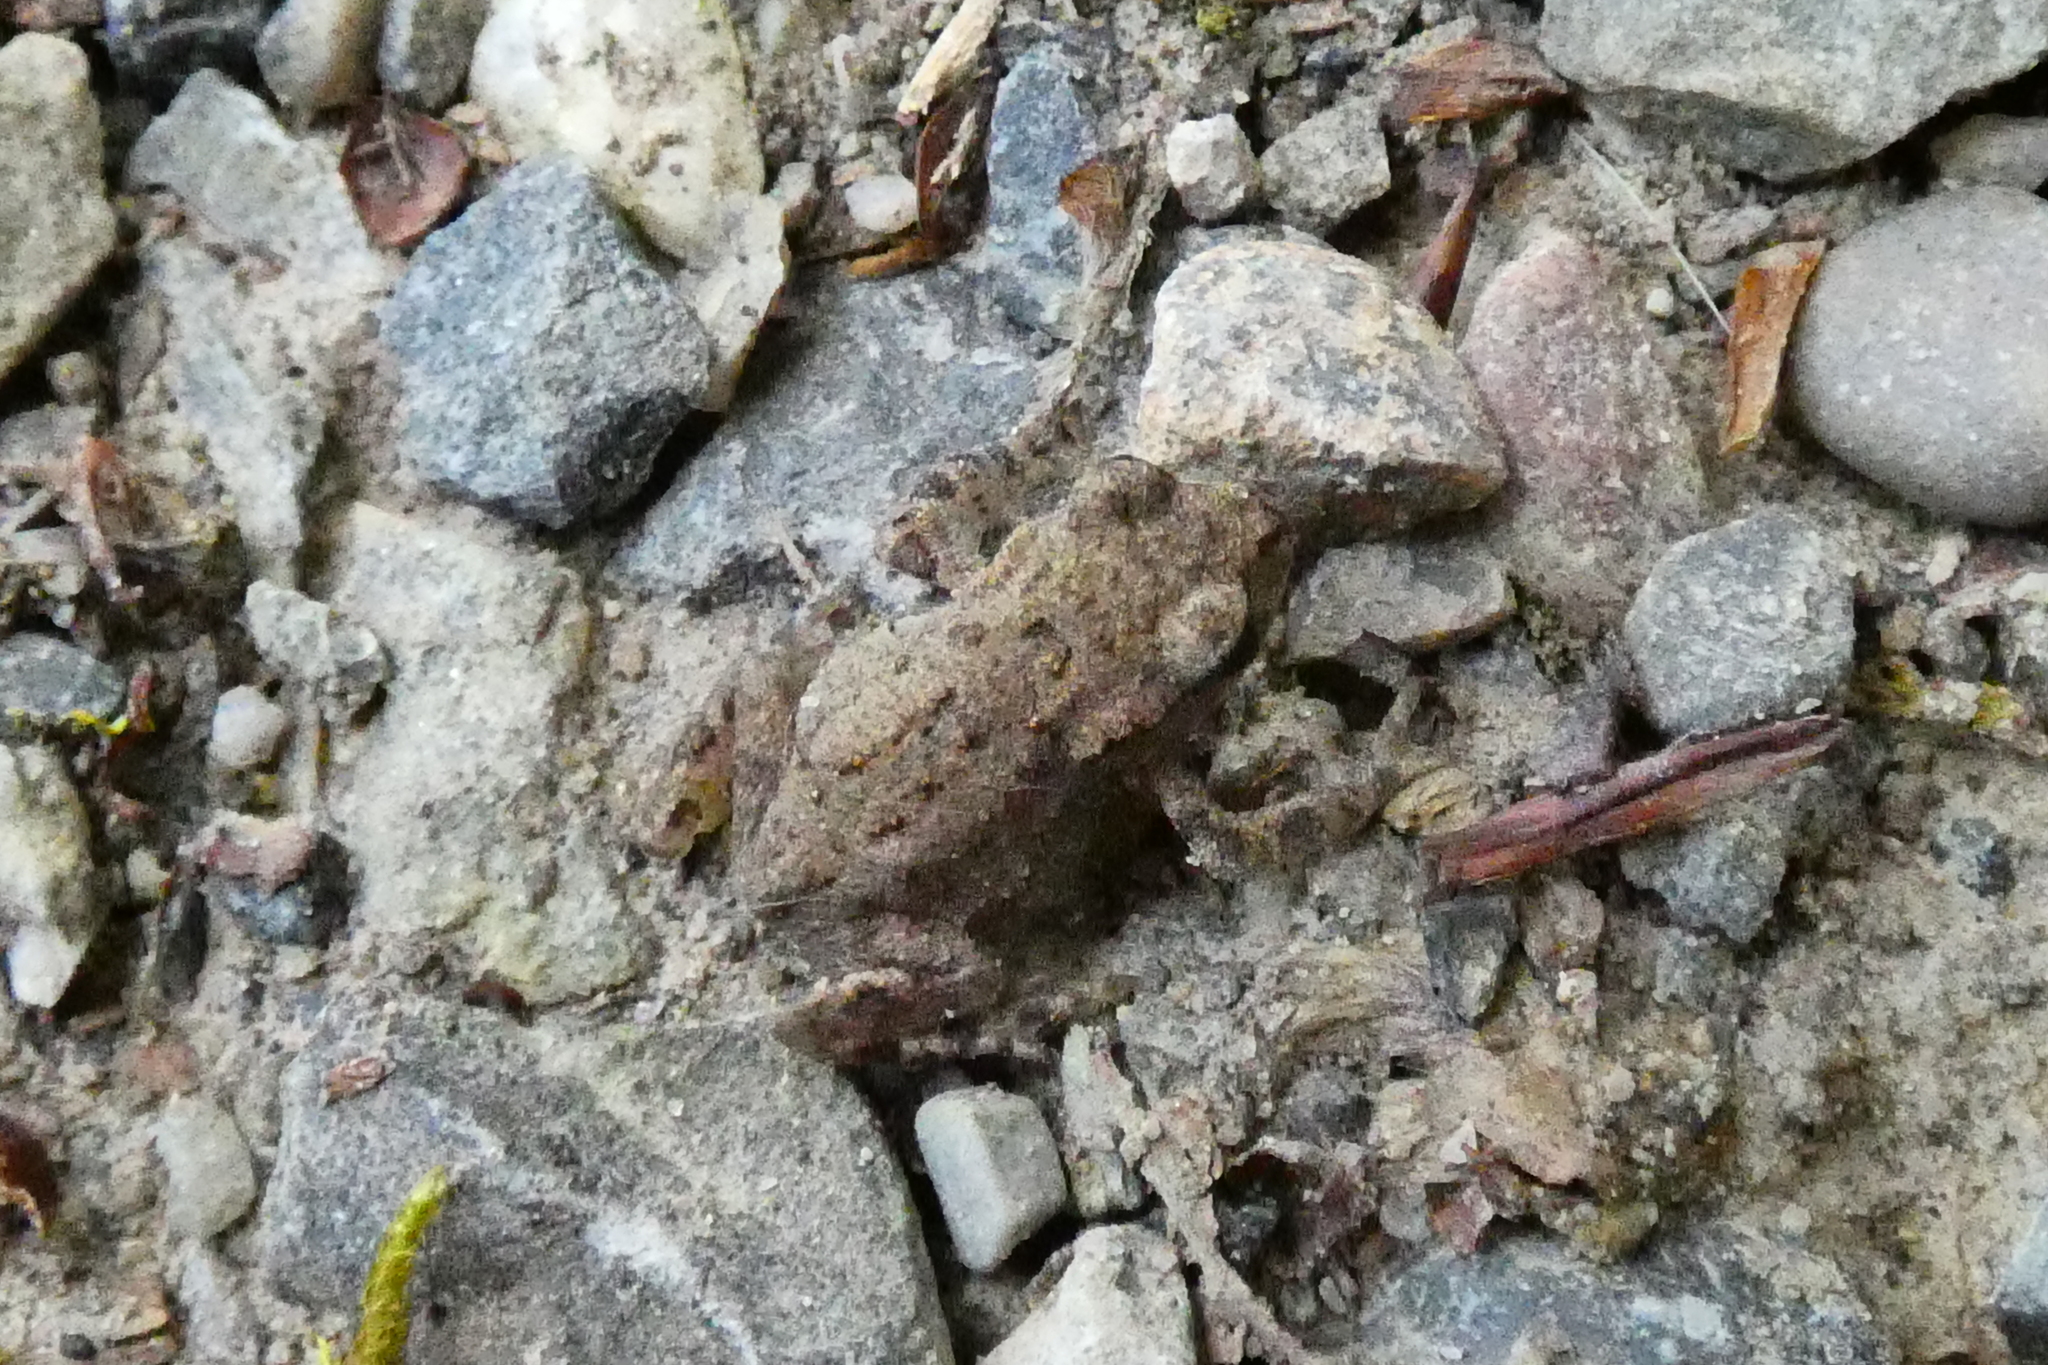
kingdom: Animalia
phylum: Chordata
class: Amphibia
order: Anura
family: Bufonidae
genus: Bufo
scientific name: Bufo bufo
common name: Common toad
